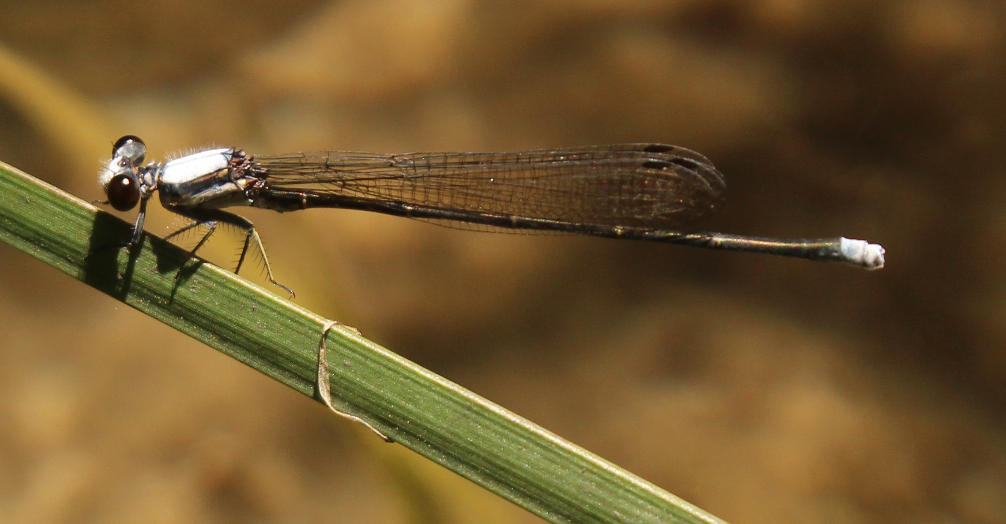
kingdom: Animalia
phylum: Arthropoda
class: Insecta
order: Odonata
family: Coenagrionidae
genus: Argia
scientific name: Argia moesta
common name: Powdered dancer
